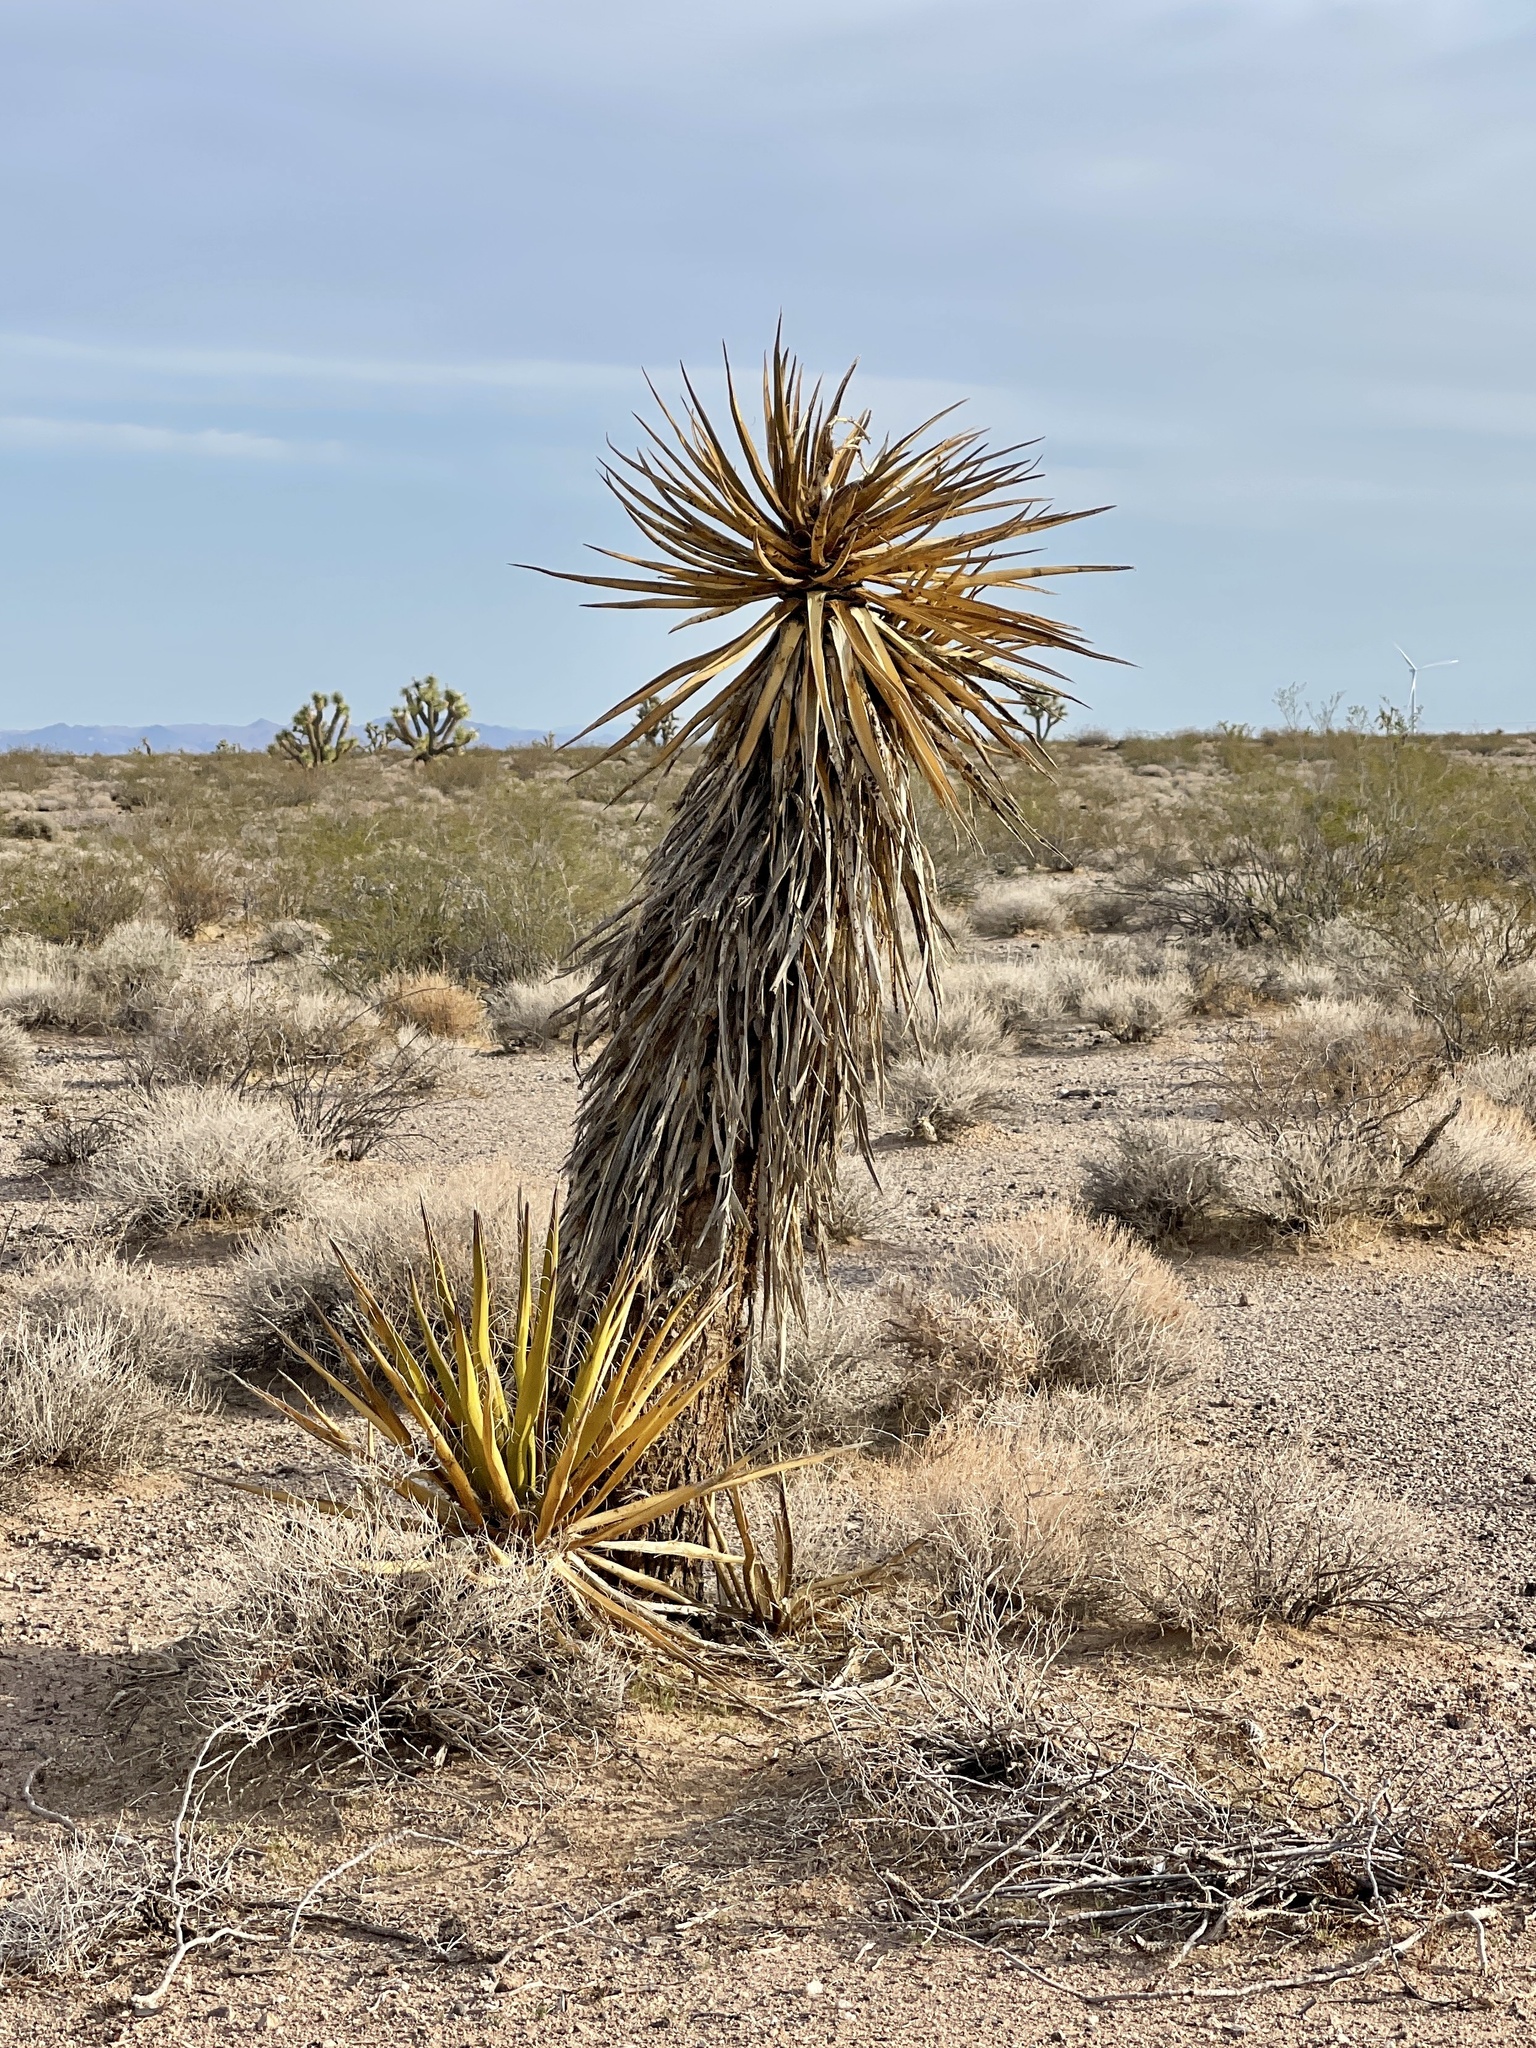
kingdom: Plantae
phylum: Tracheophyta
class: Liliopsida
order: Asparagales
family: Asparagaceae
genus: Yucca
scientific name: Yucca schidigera
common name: Mojave yucca
